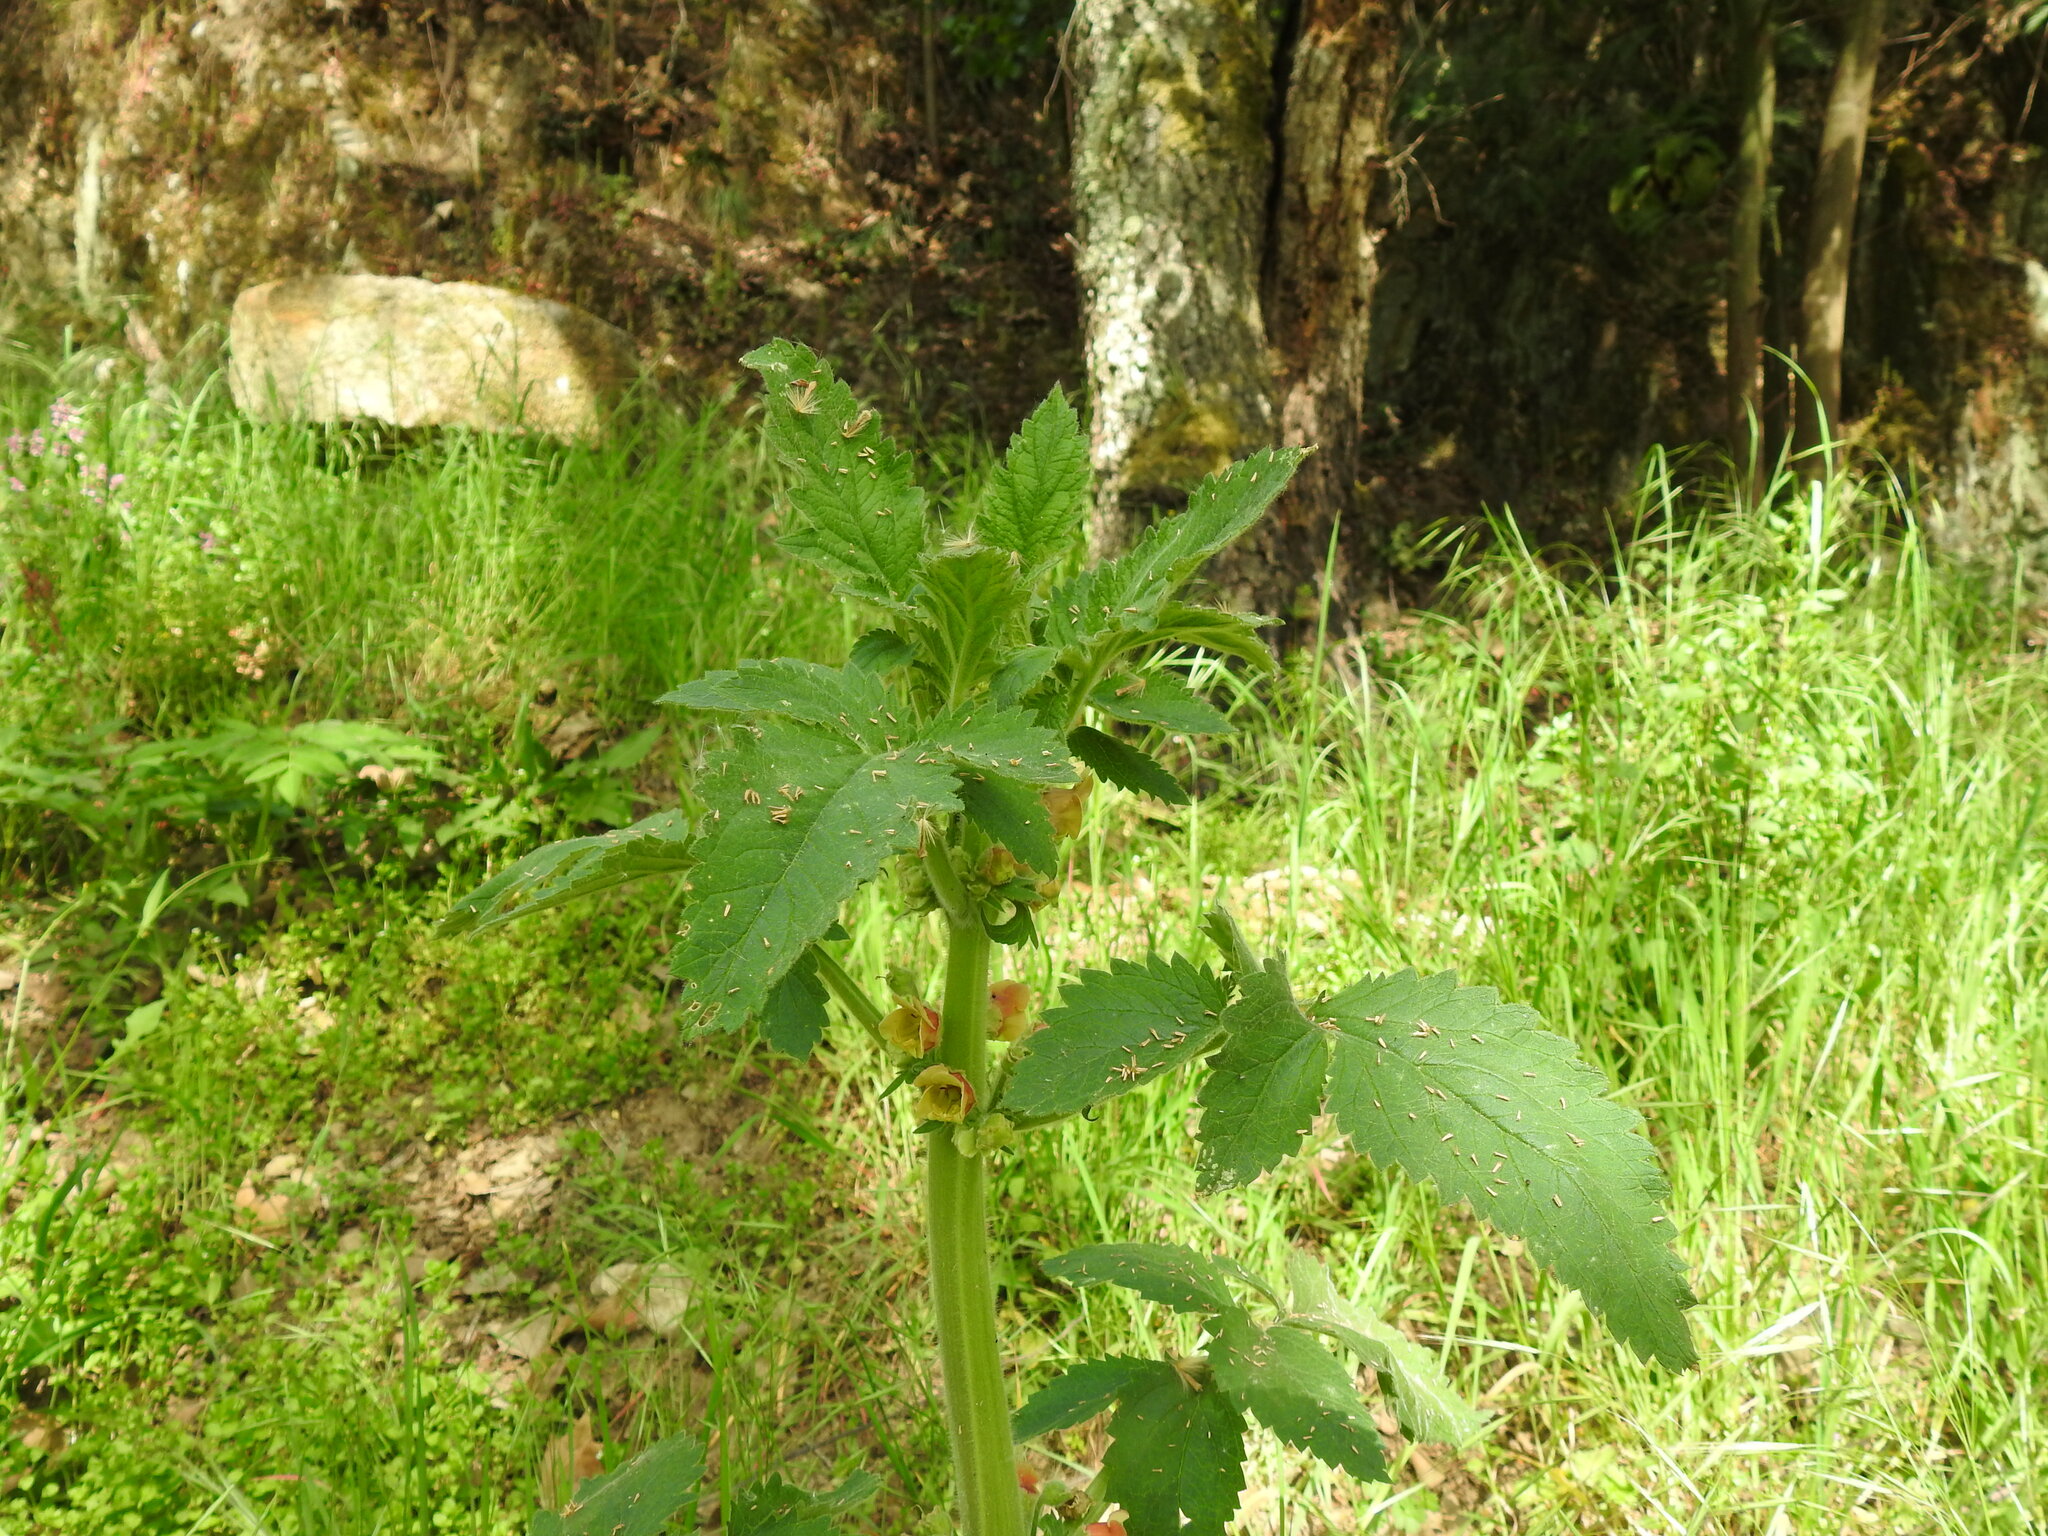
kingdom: Plantae
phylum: Tracheophyta
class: Magnoliopsida
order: Lamiales
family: Scrophulariaceae
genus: Scrophularia
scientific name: Scrophularia grandiflora
